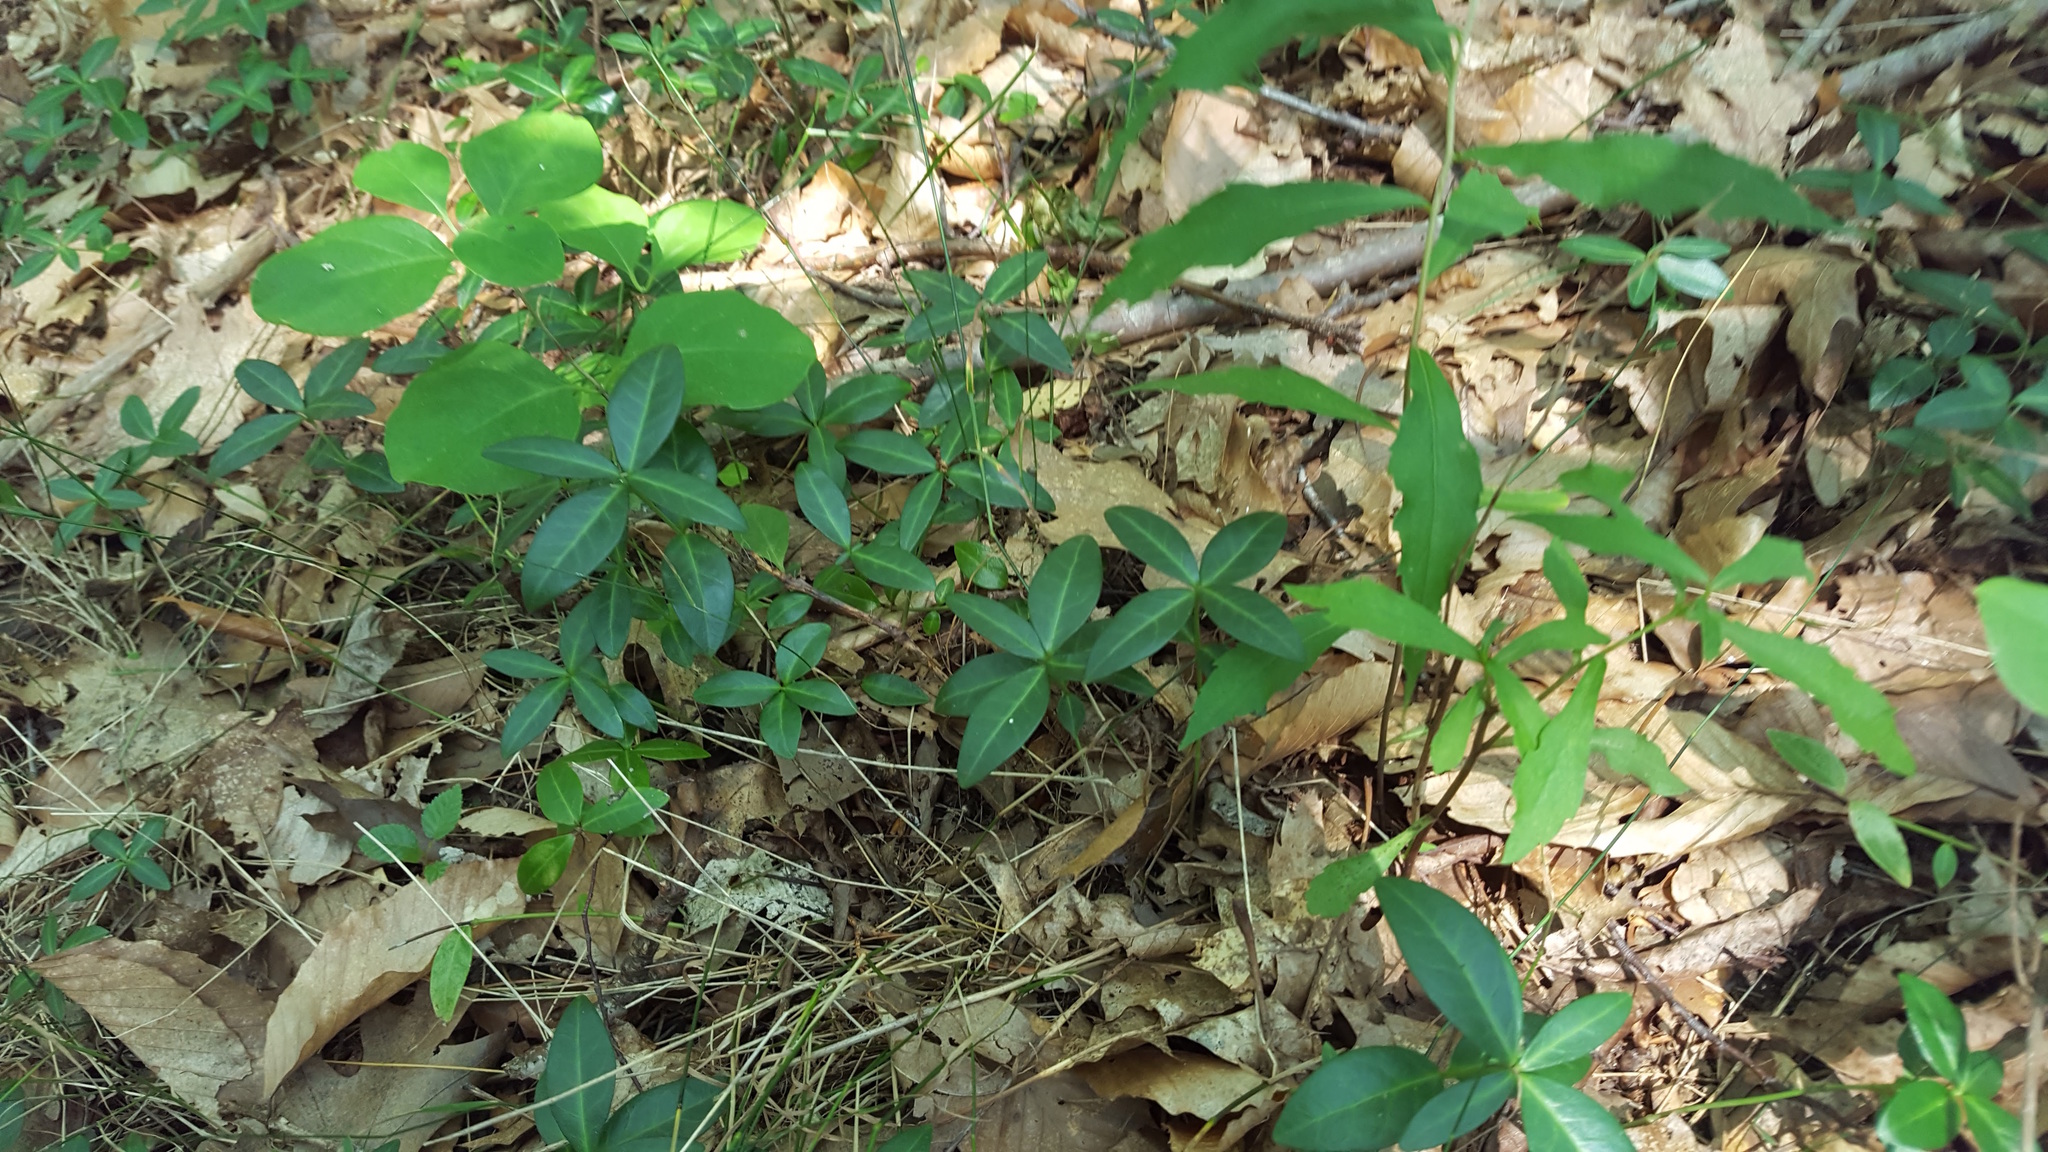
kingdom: Plantae
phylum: Tracheophyta
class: Magnoliopsida
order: Gentianales
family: Apocynaceae
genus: Vinca
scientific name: Vinca minor
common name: Lesser periwinkle
